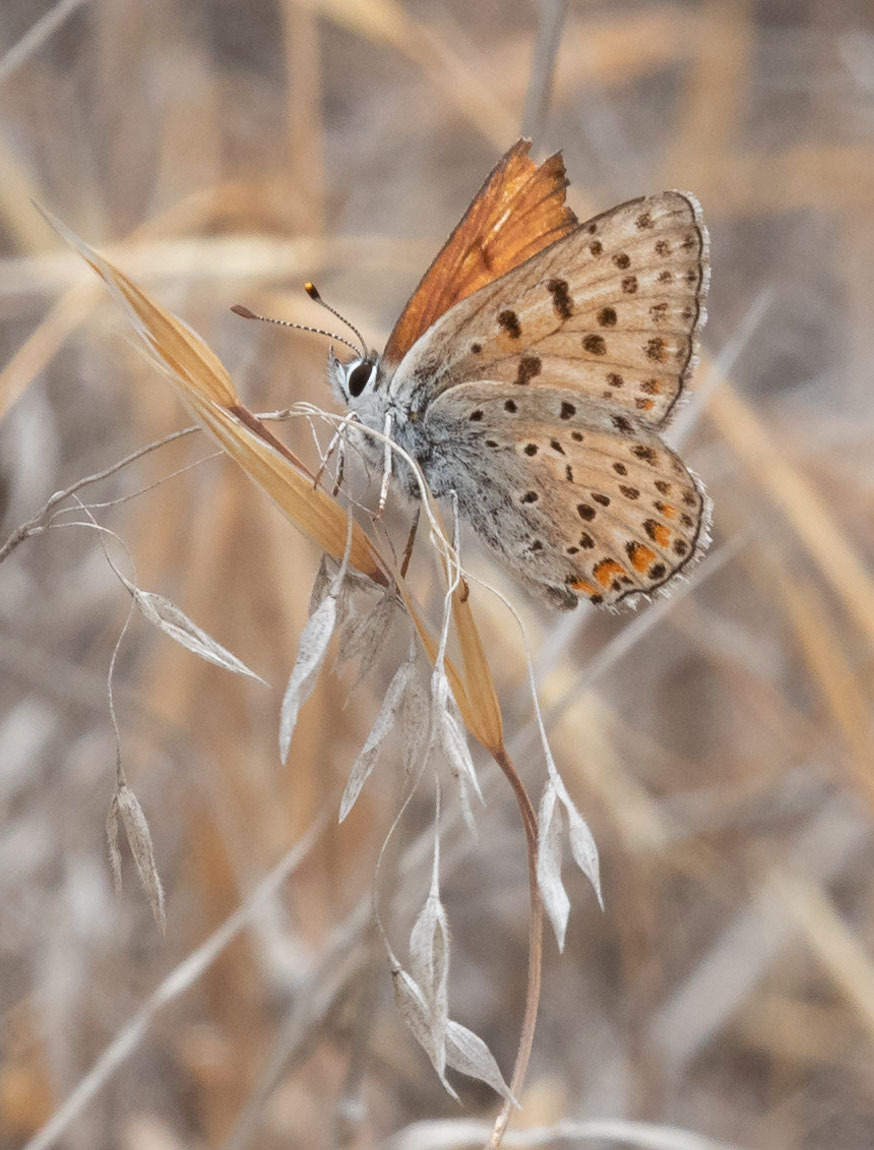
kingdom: Animalia
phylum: Arthropoda
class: Insecta
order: Lepidoptera
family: Lycaenidae
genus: Tharsalea
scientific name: Tharsalea gorgon
